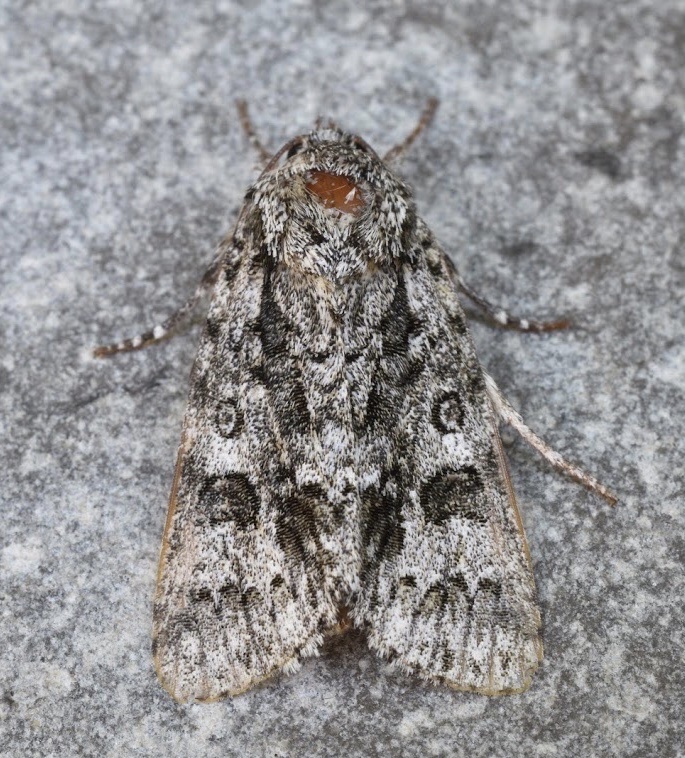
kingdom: Animalia
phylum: Arthropoda
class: Insecta
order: Lepidoptera
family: Noctuidae
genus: Acronicta
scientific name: Acronicta impressa
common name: Impressed dagger
